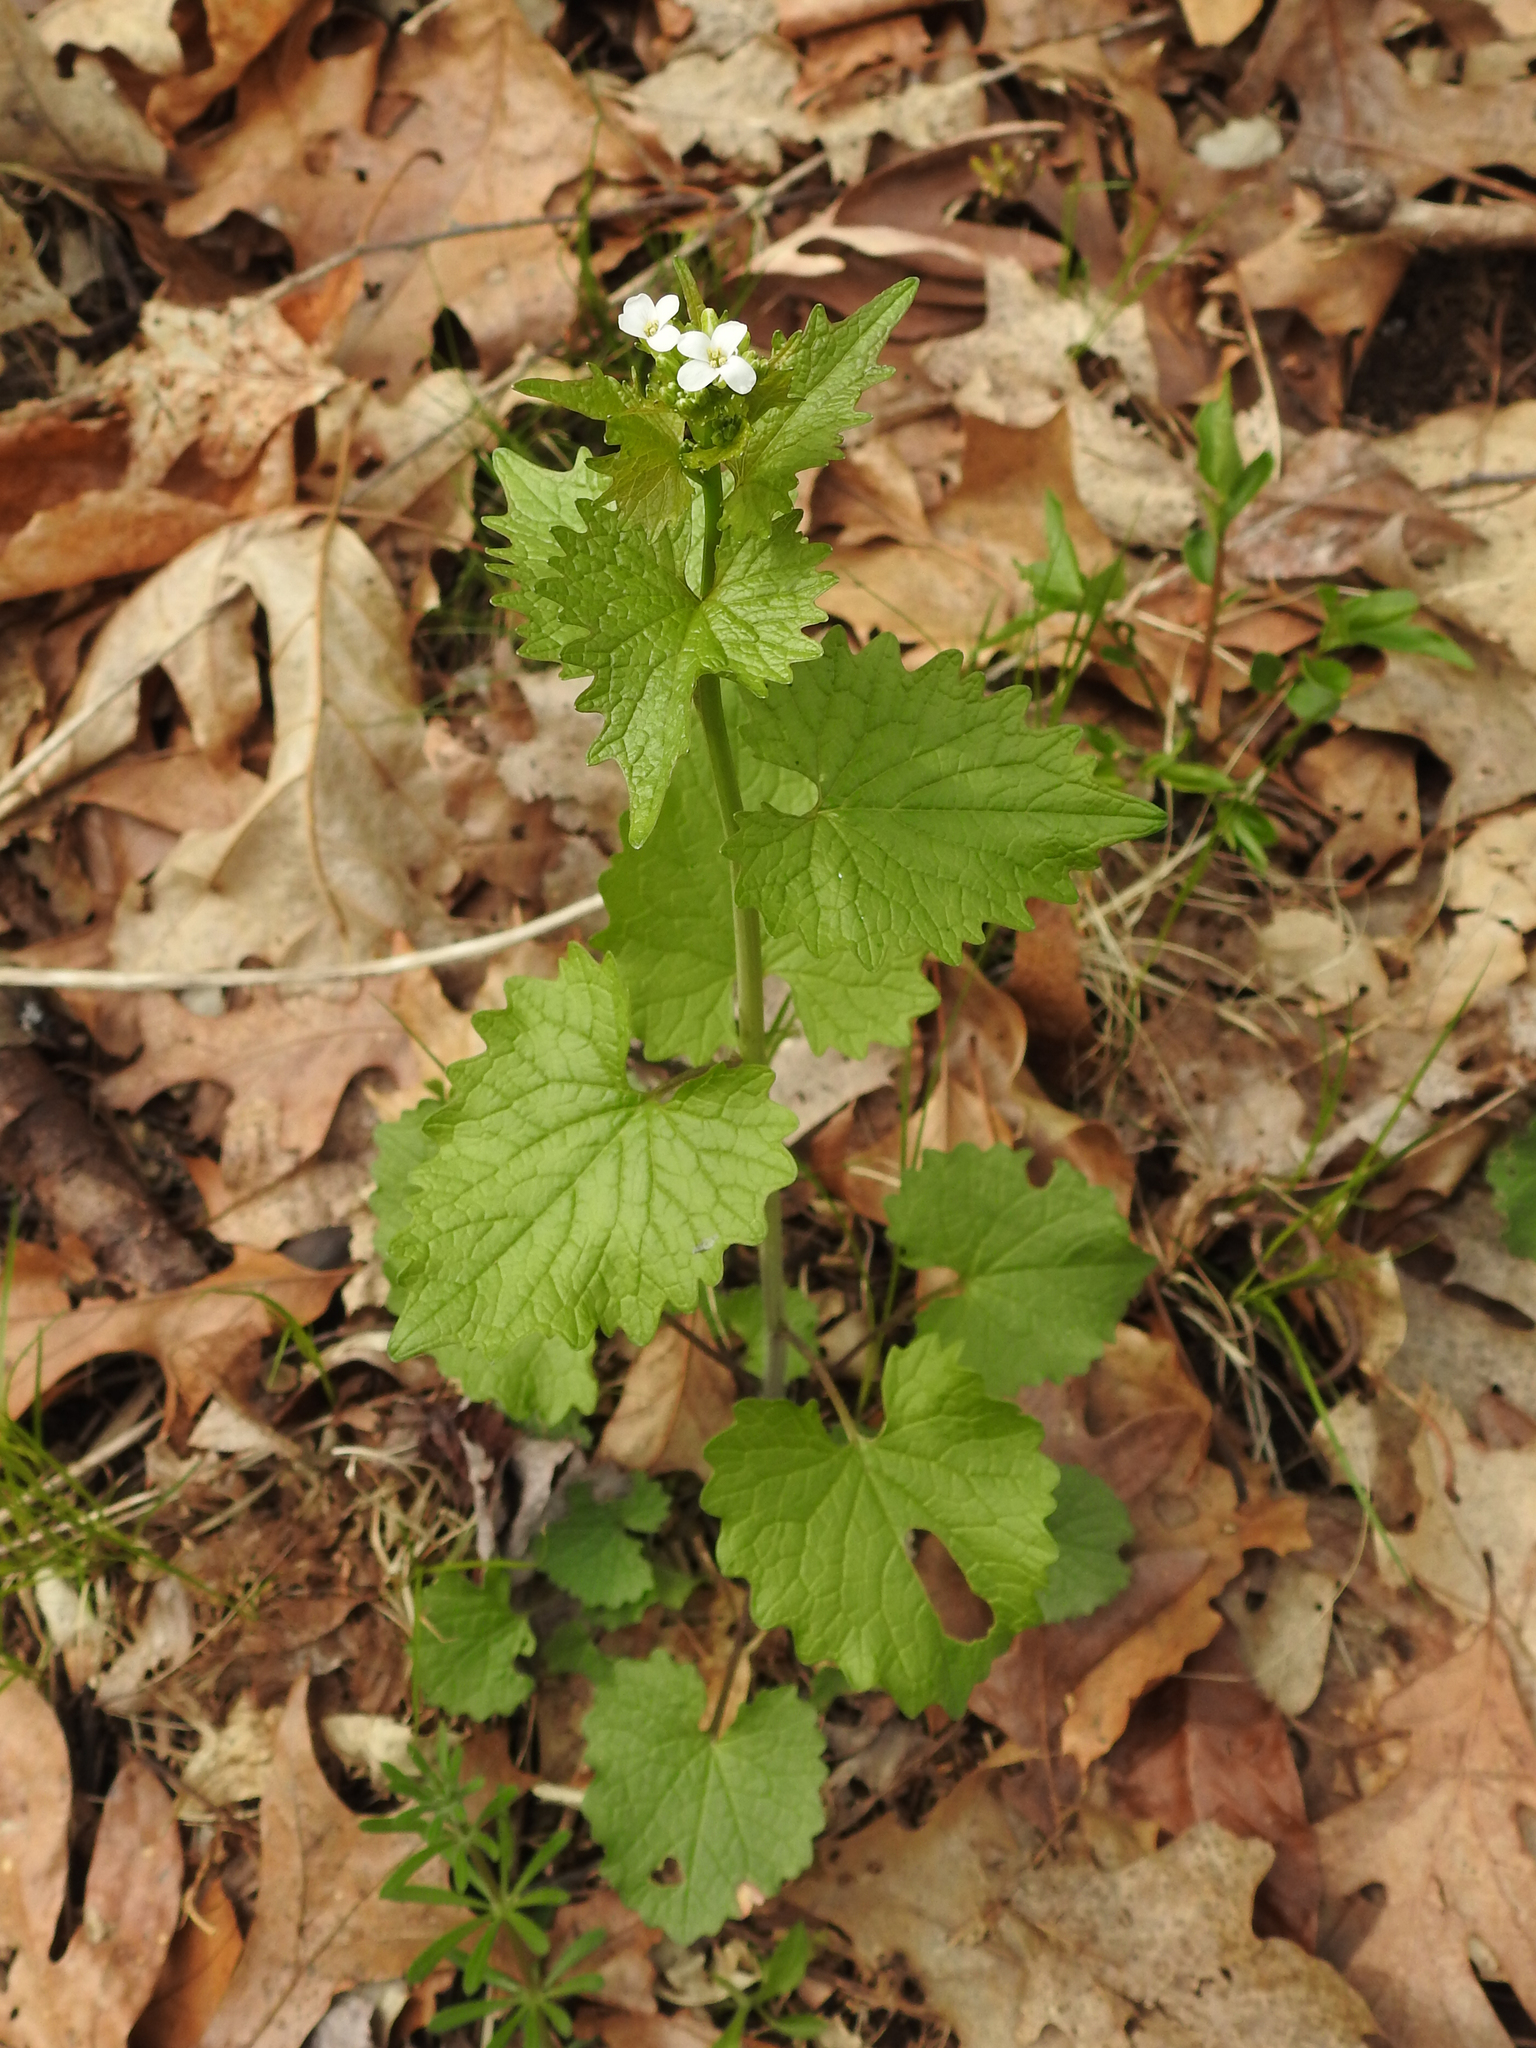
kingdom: Plantae
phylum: Tracheophyta
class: Magnoliopsida
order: Brassicales
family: Brassicaceae
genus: Alliaria
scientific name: Alliaria petiolata
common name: Garlic mustard
